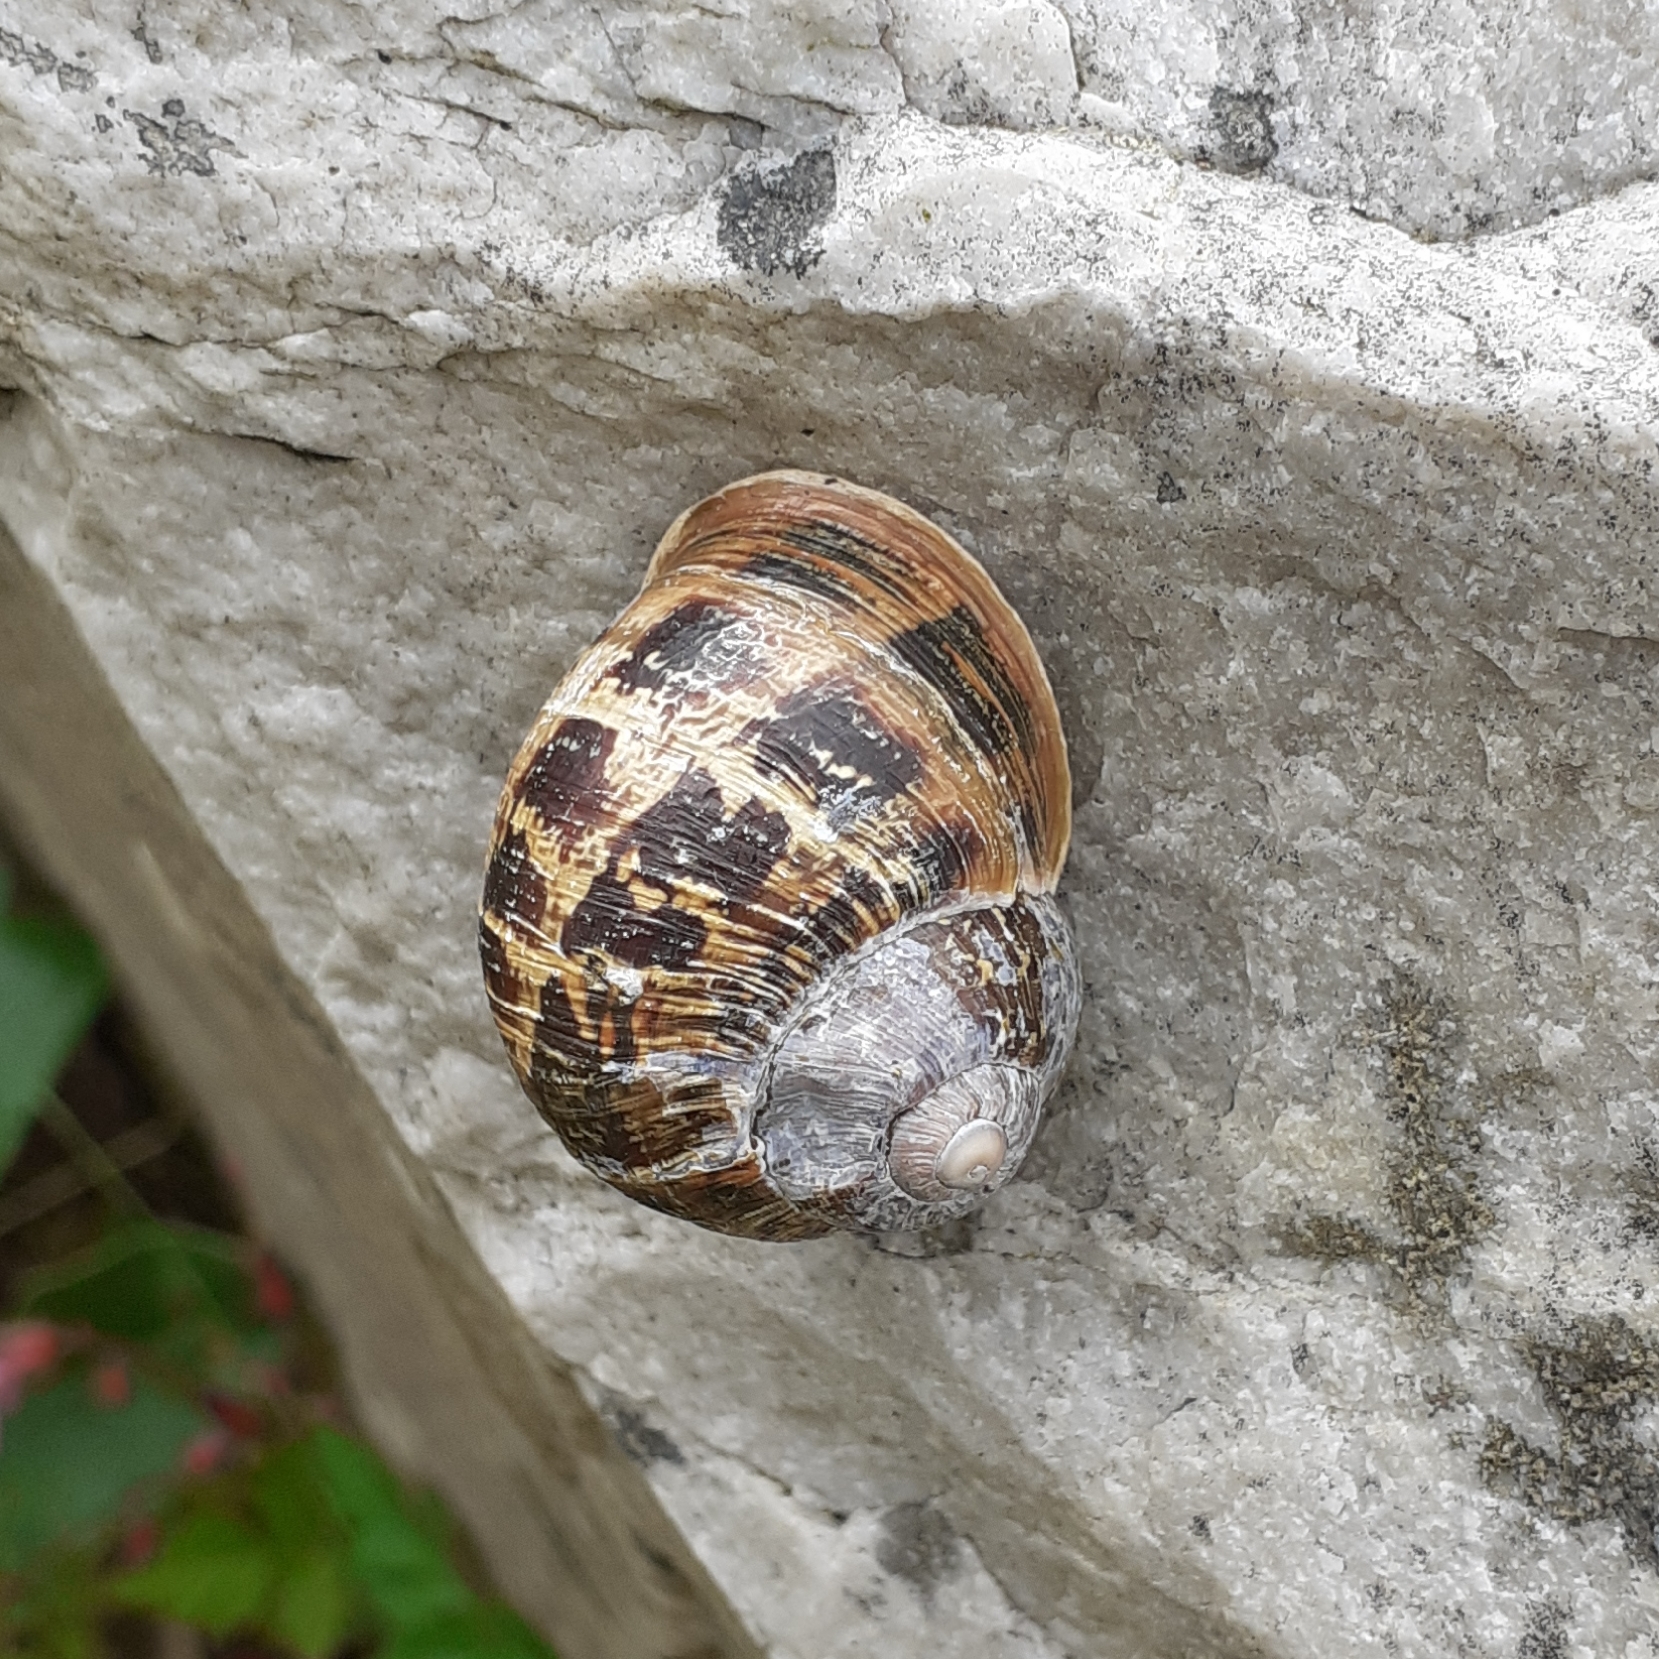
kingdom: Animalia
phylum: Mollusca
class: Gastropoda
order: Stylommatophora
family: Helicidae
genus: Cornu
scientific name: Cornu aspersum
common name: Brown garden snail
